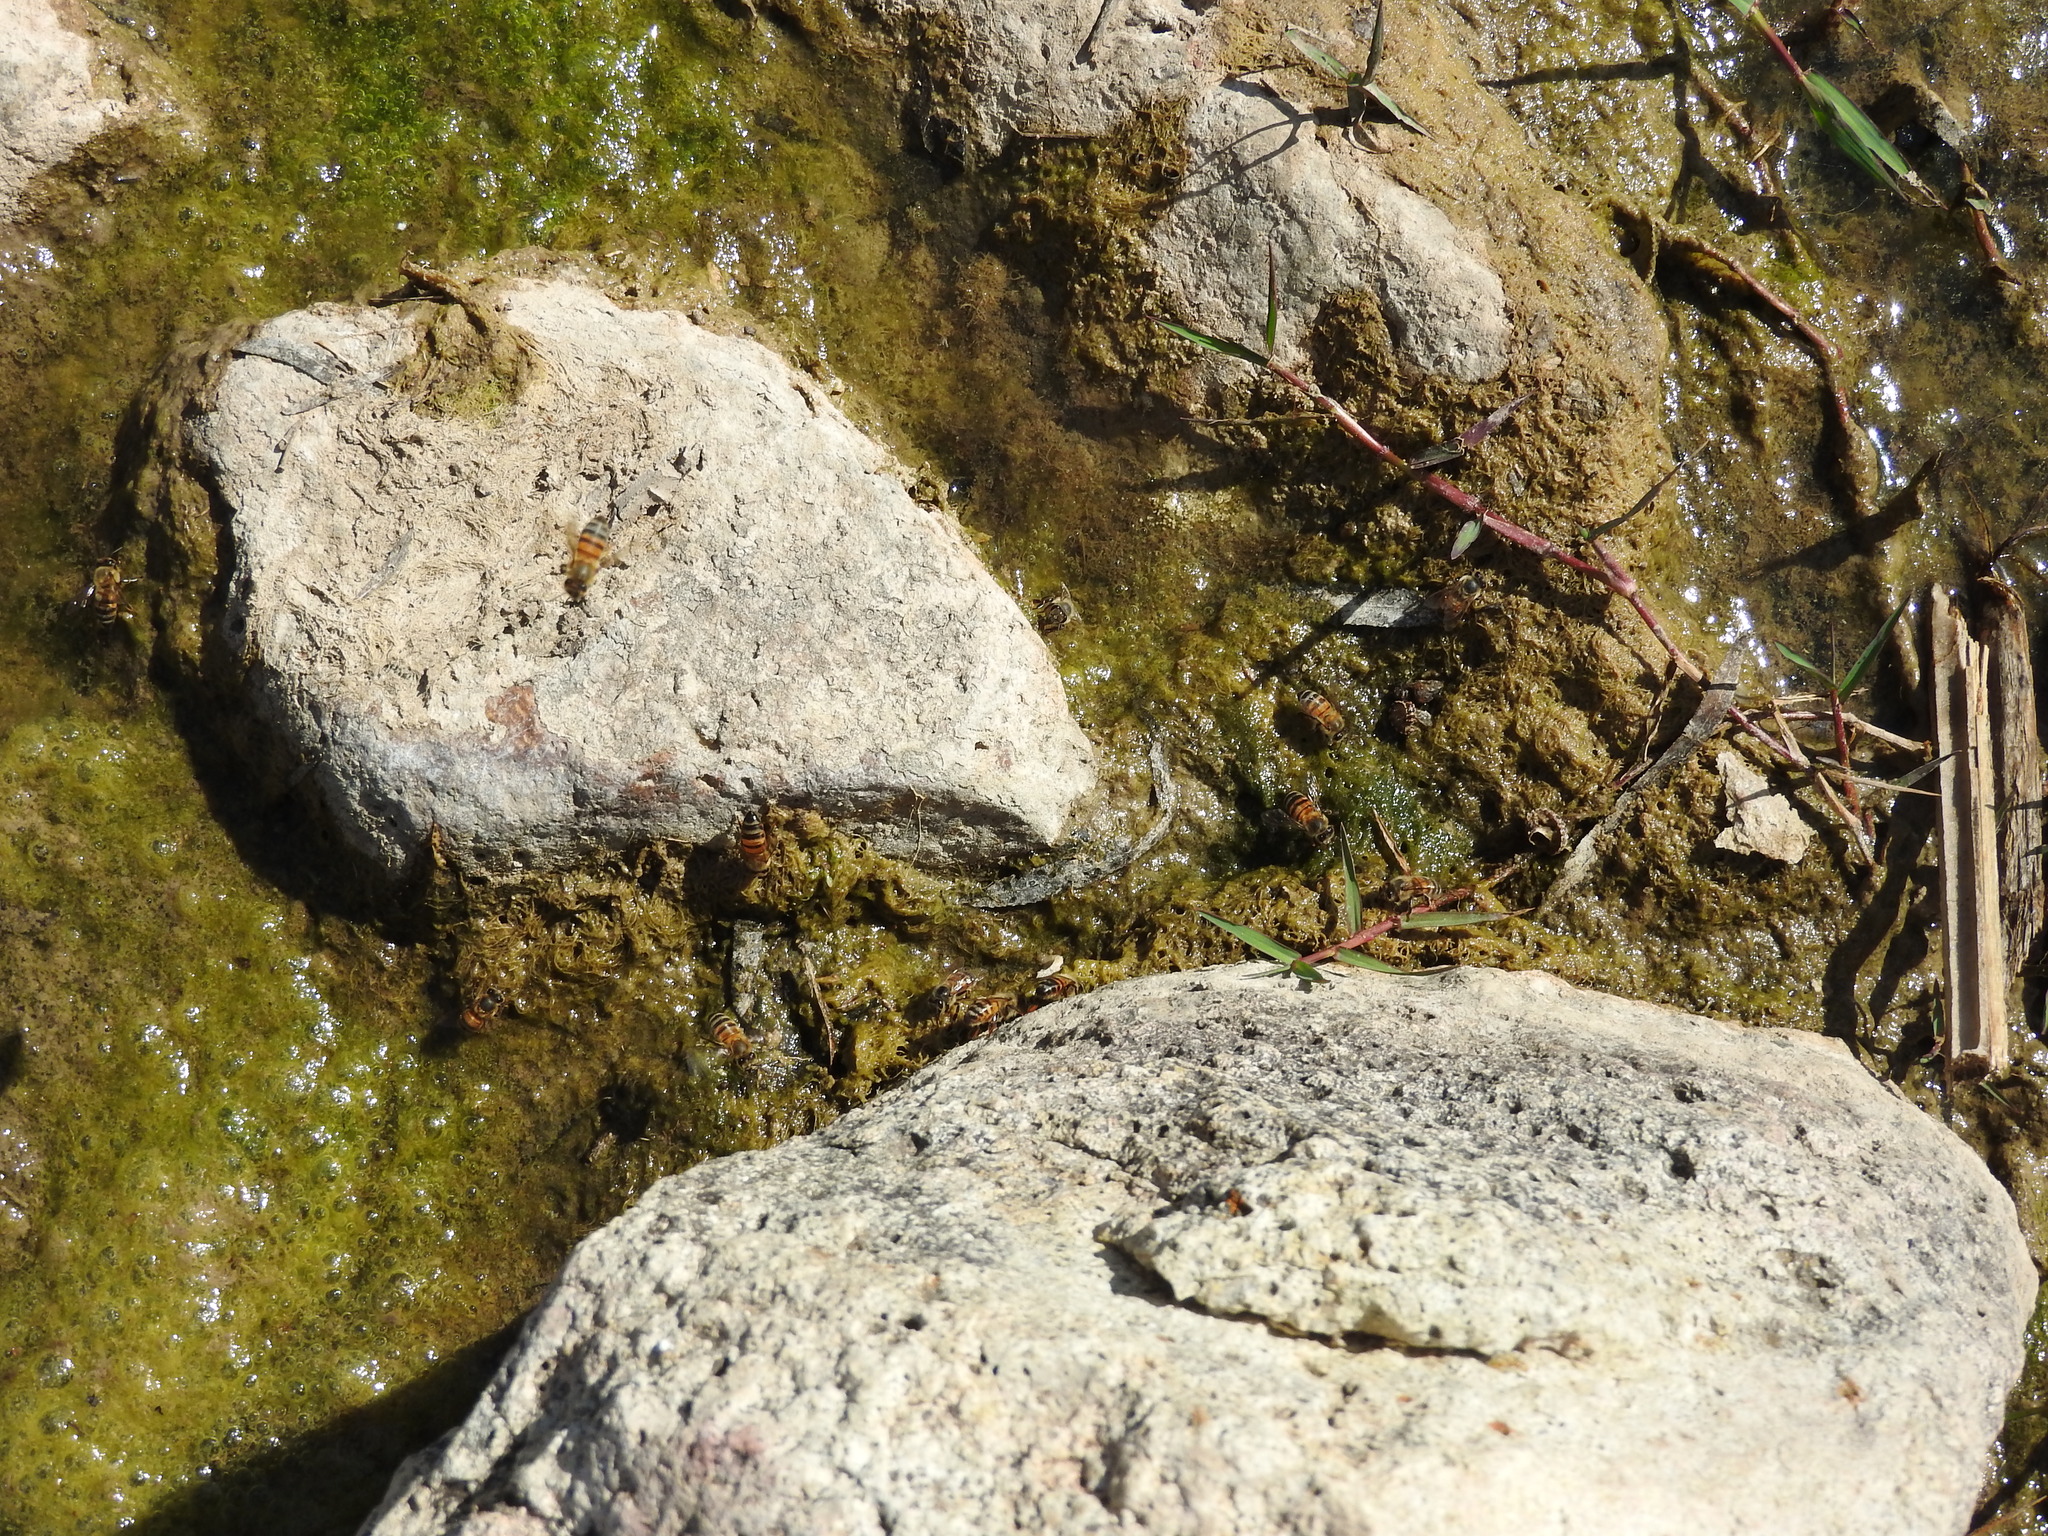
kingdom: Animalia
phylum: Arthropoda
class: Insecta
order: Hymenoptera
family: Apidae
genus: Apis
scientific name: Apis mellifera
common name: Honey bee
